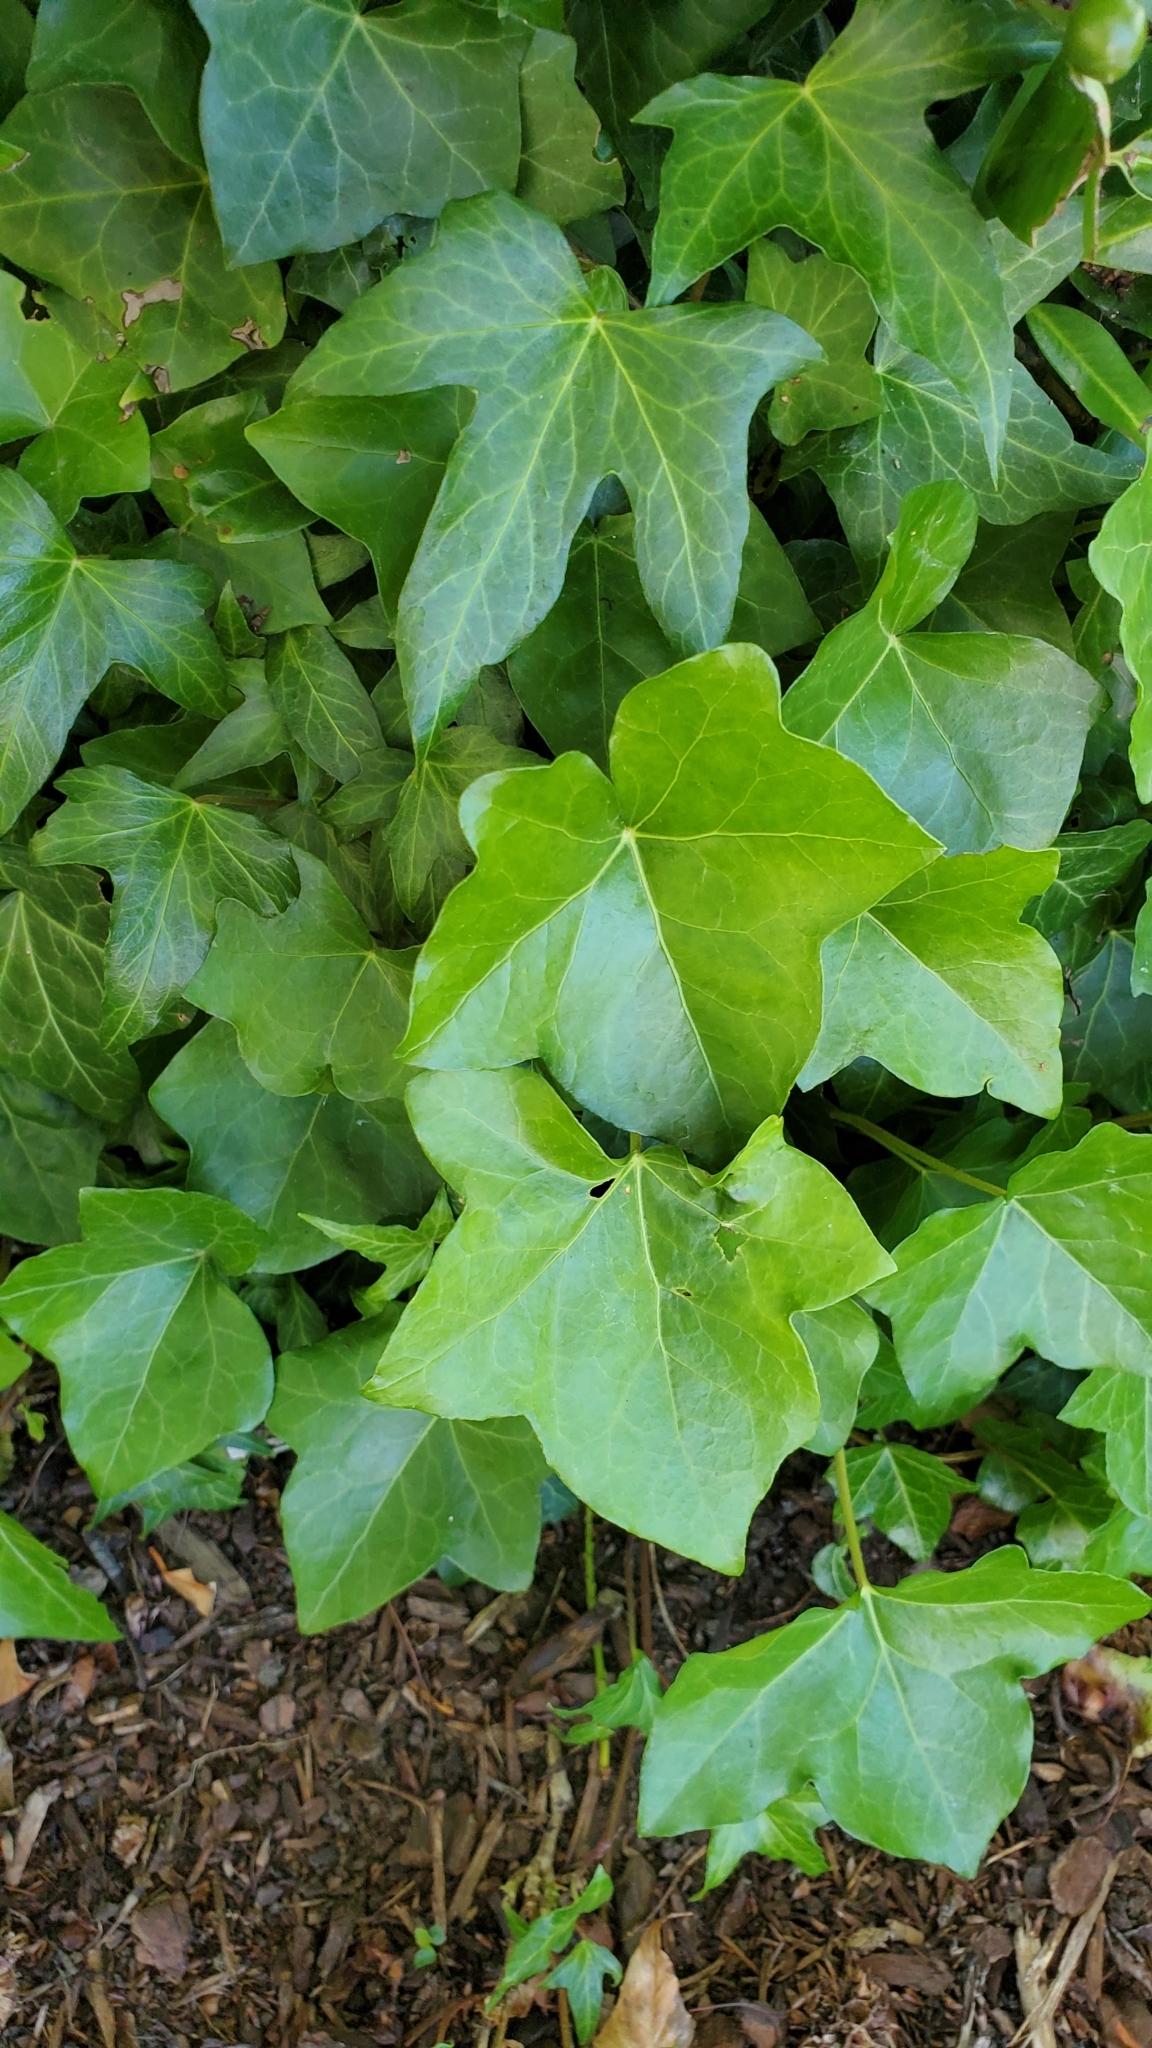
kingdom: Plantae
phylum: Tracheophyta
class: Magnoliopsida
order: Apiales
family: Araliaceae
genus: Hedera
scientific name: Hedera helix
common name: Ivy
